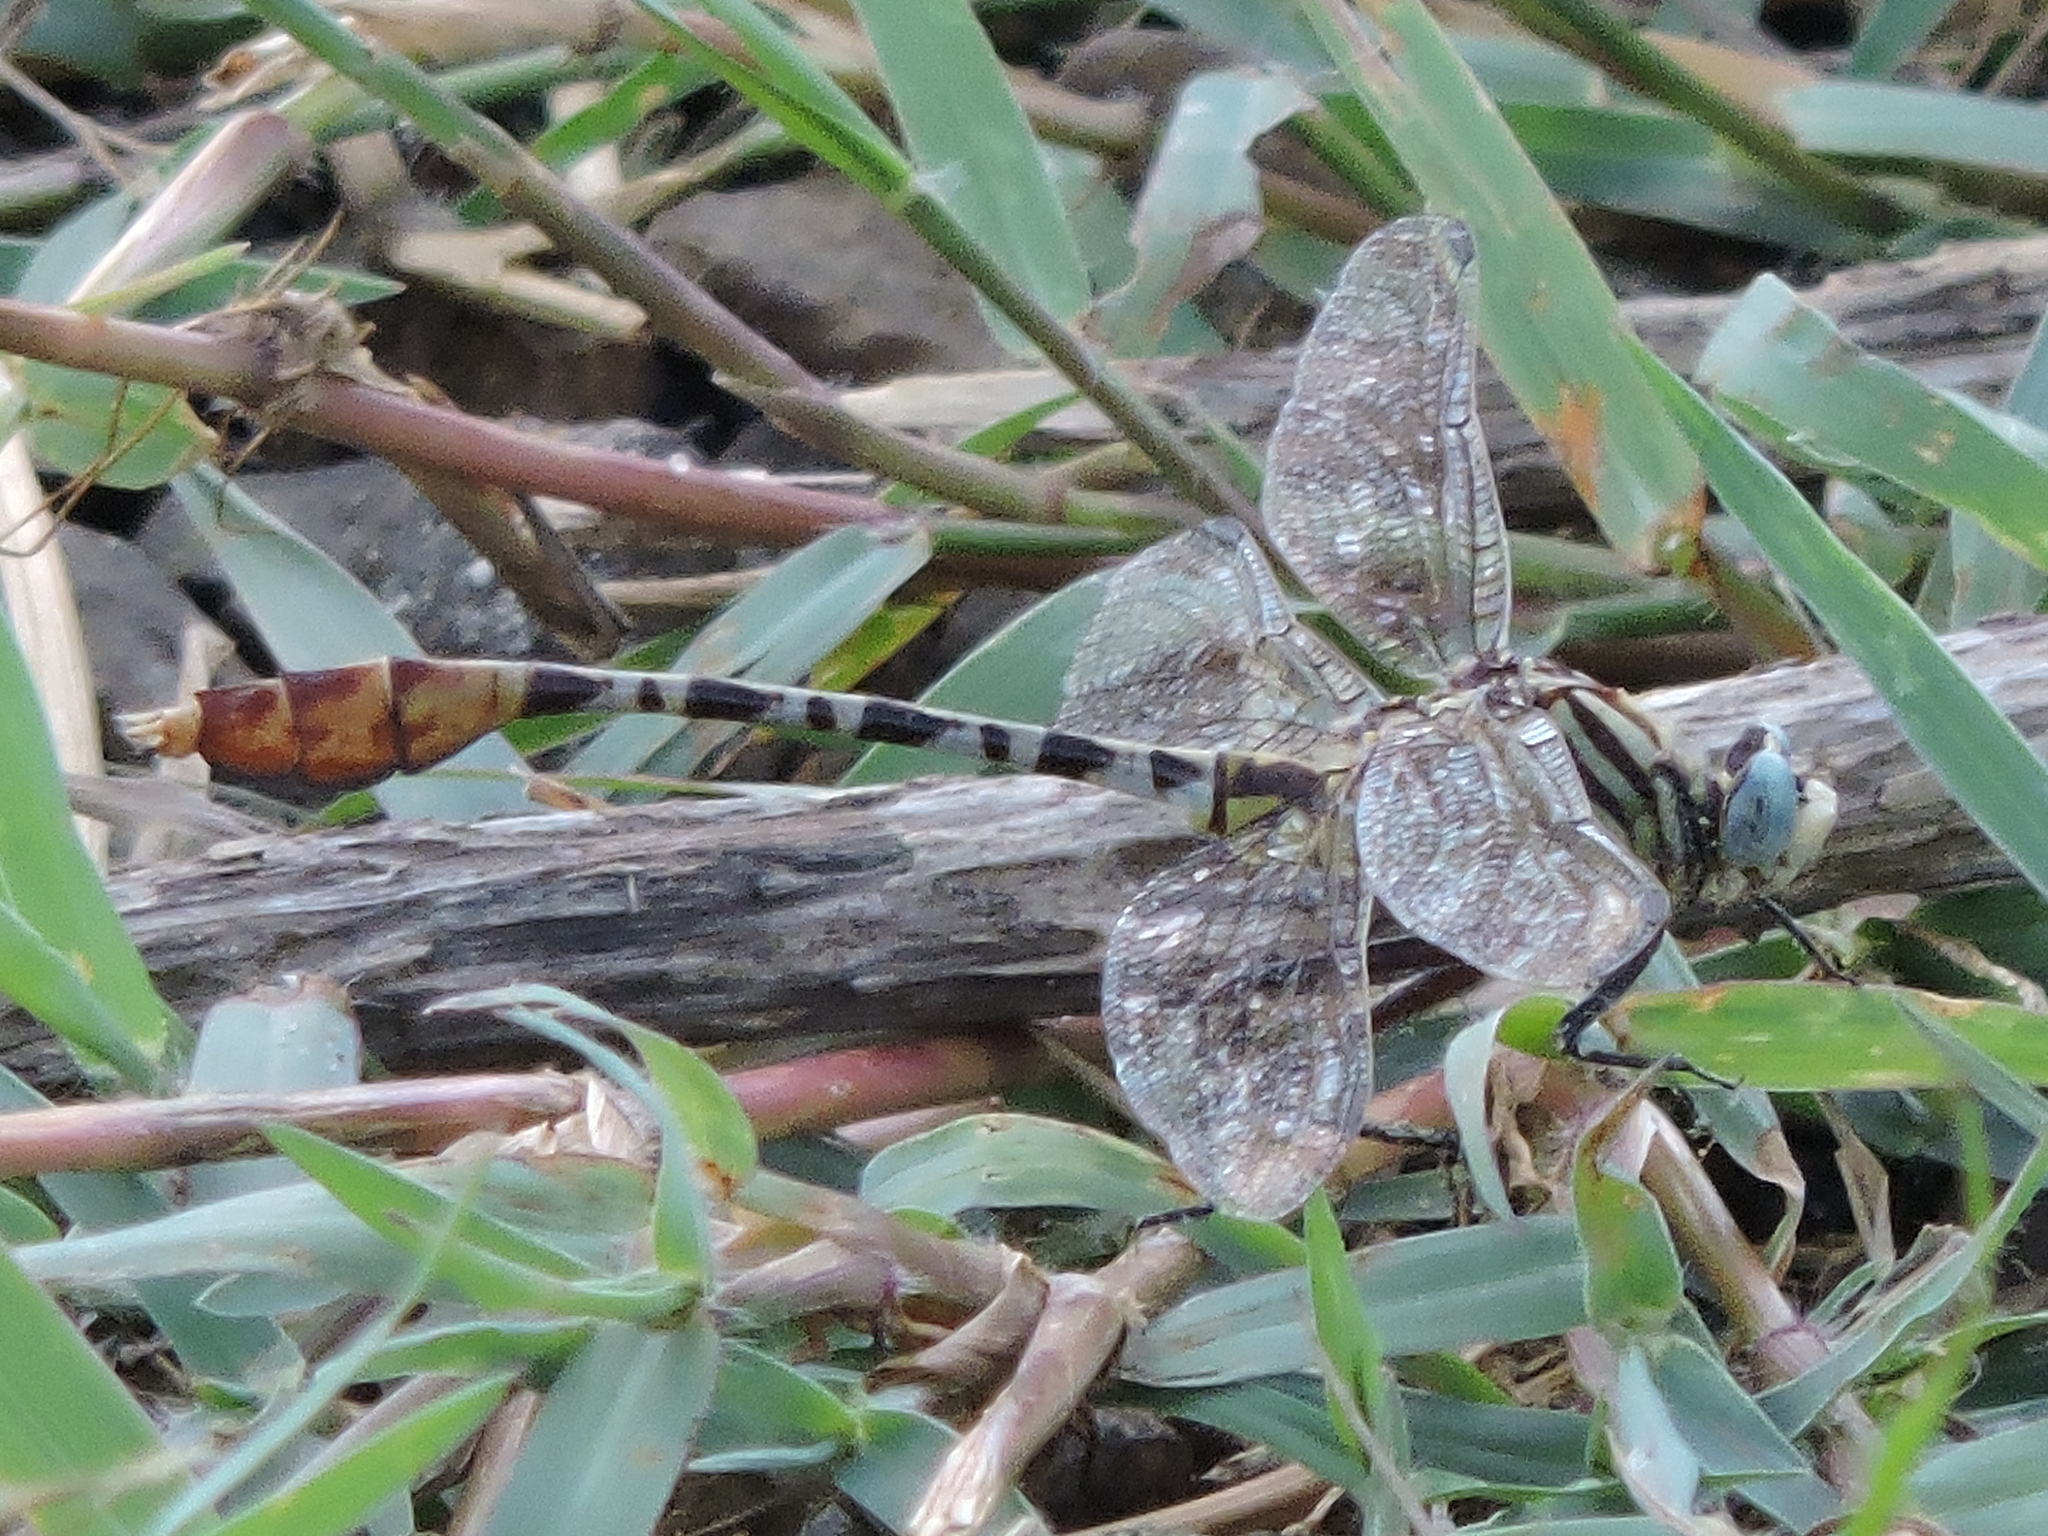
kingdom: Animalia
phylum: Arthropoda
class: Insecta
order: Odonata
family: Gomphidae
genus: Dromogomphus
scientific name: Dromogomphus spoliatus
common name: Flag-tailed spinyleg
